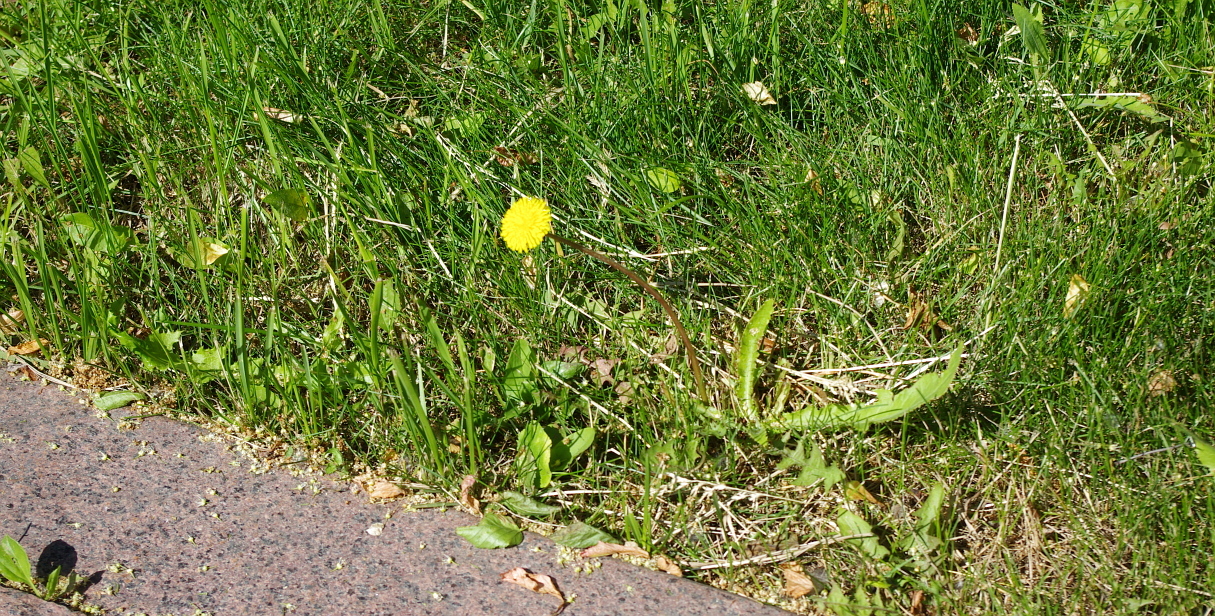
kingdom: Plantae
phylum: Tracheophyta
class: Magnoliopsida
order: Asterales
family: Asteraceae
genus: Taraxacum
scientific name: Taraxacum officinale
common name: Common dandelion
